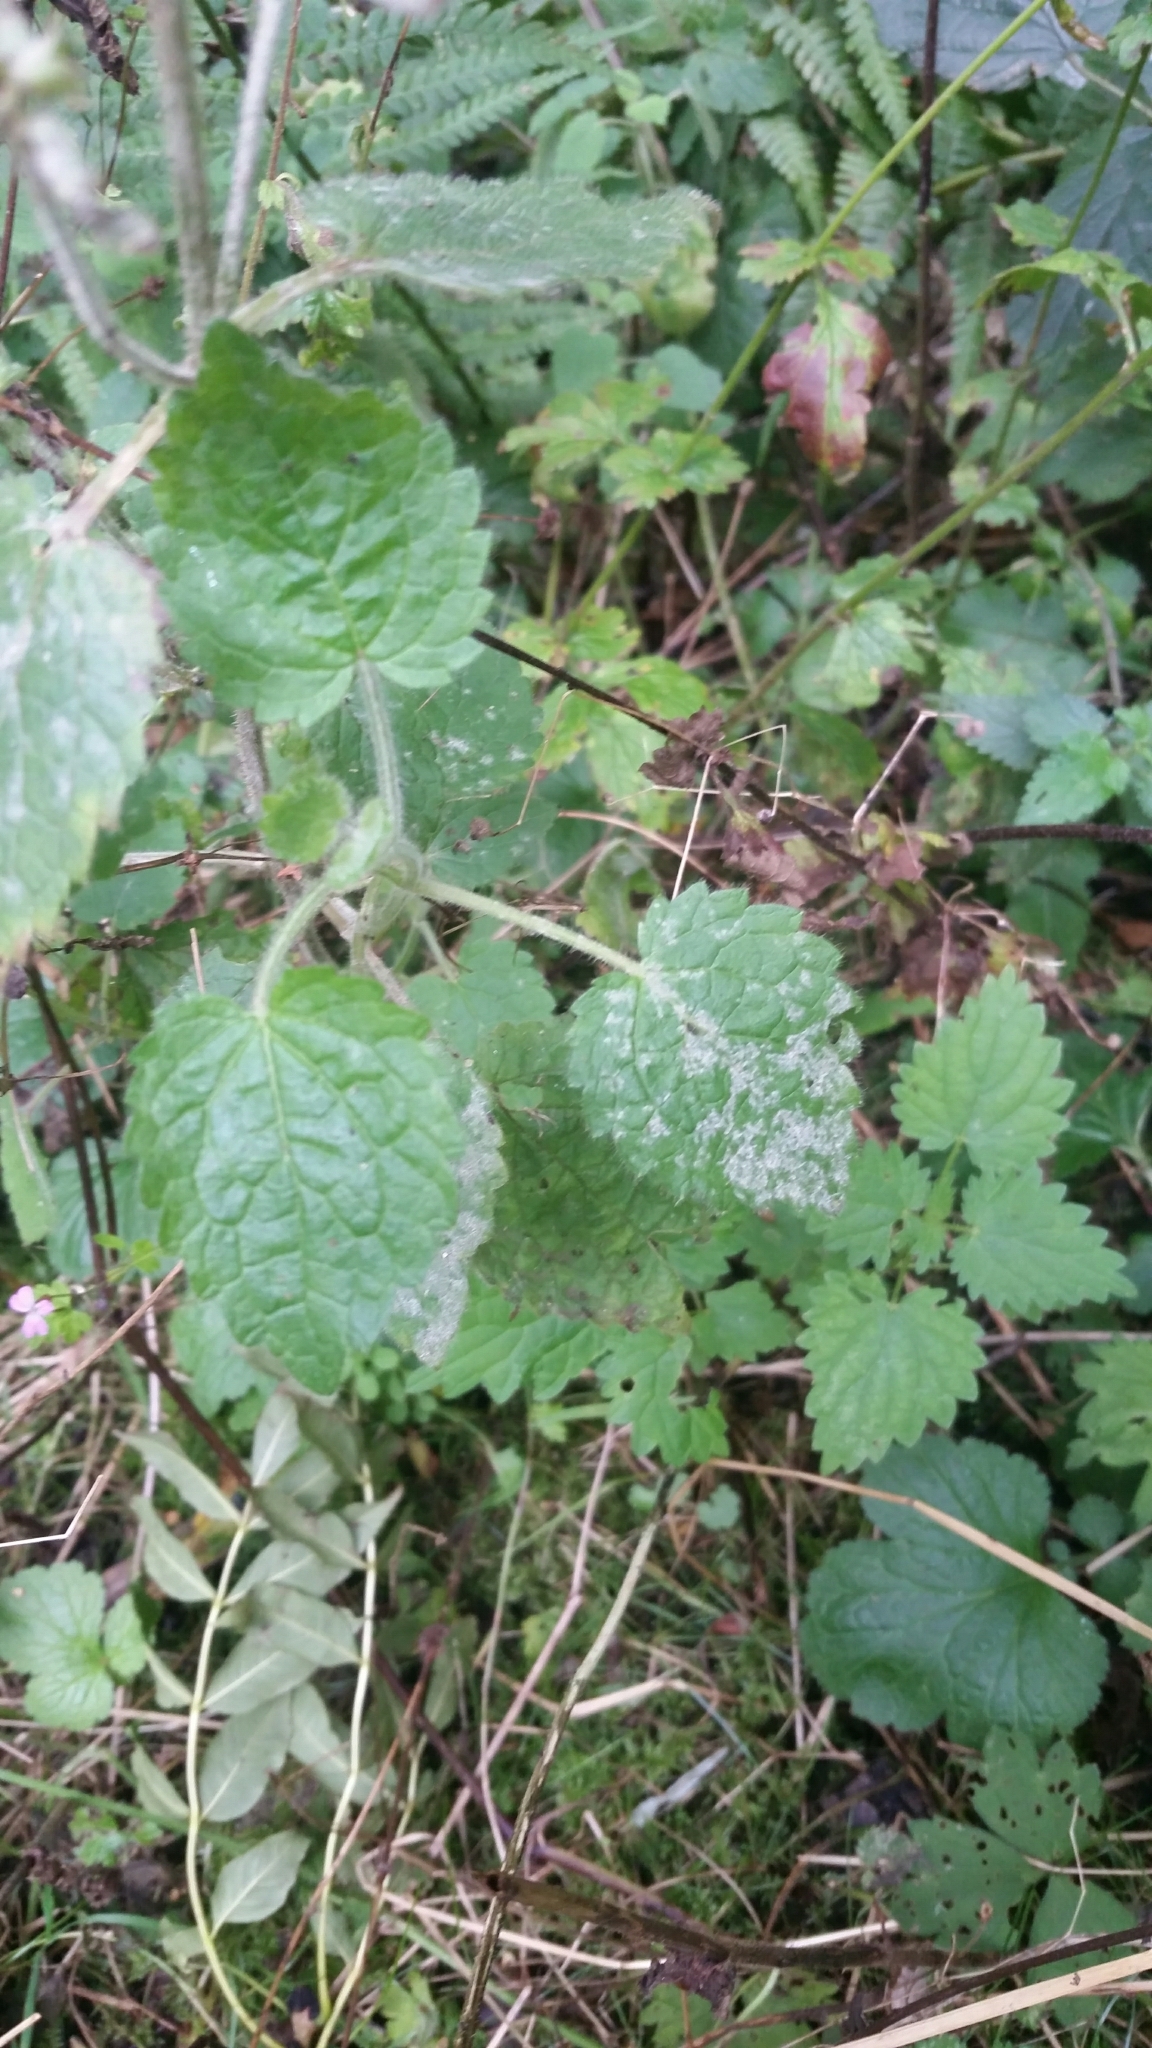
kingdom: Fungi
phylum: Ascomycota
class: Leotiomycetes
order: Helotiales
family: Erysiphaceae
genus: Neoerysiphe
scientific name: Neoerysiphe galeopsidis
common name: Mint mildew
